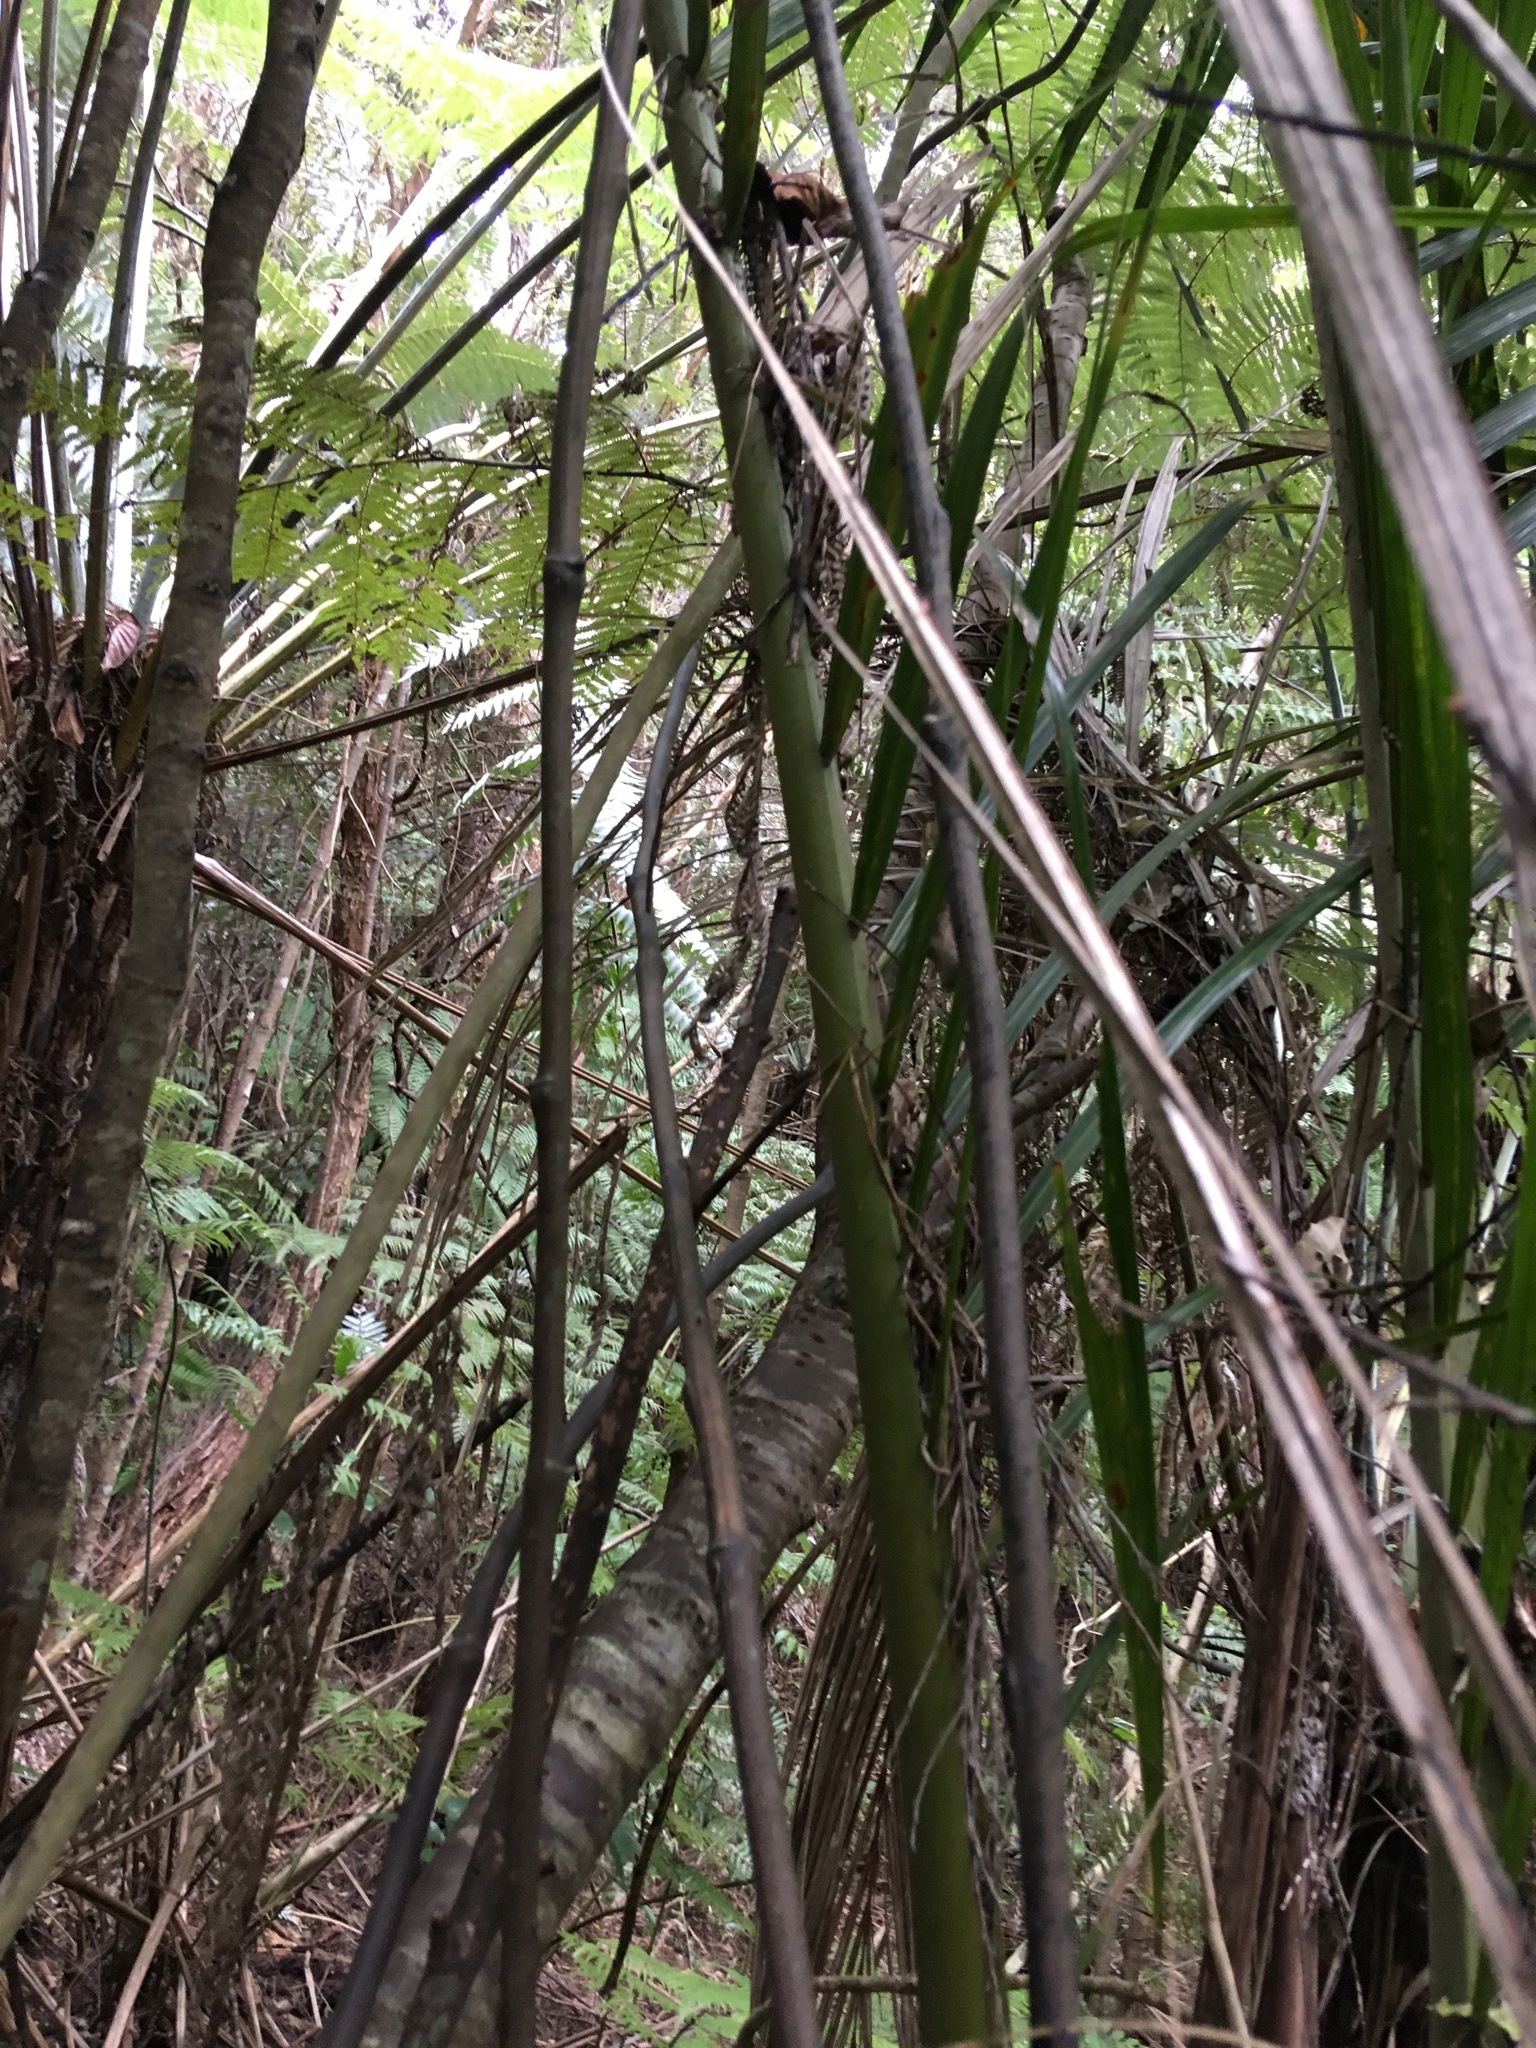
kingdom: Plantae
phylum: Tracheophyta
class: Liliopsida
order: Liliales
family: Ripogonaceae
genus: Ripogonum
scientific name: Ripogonum scandens
